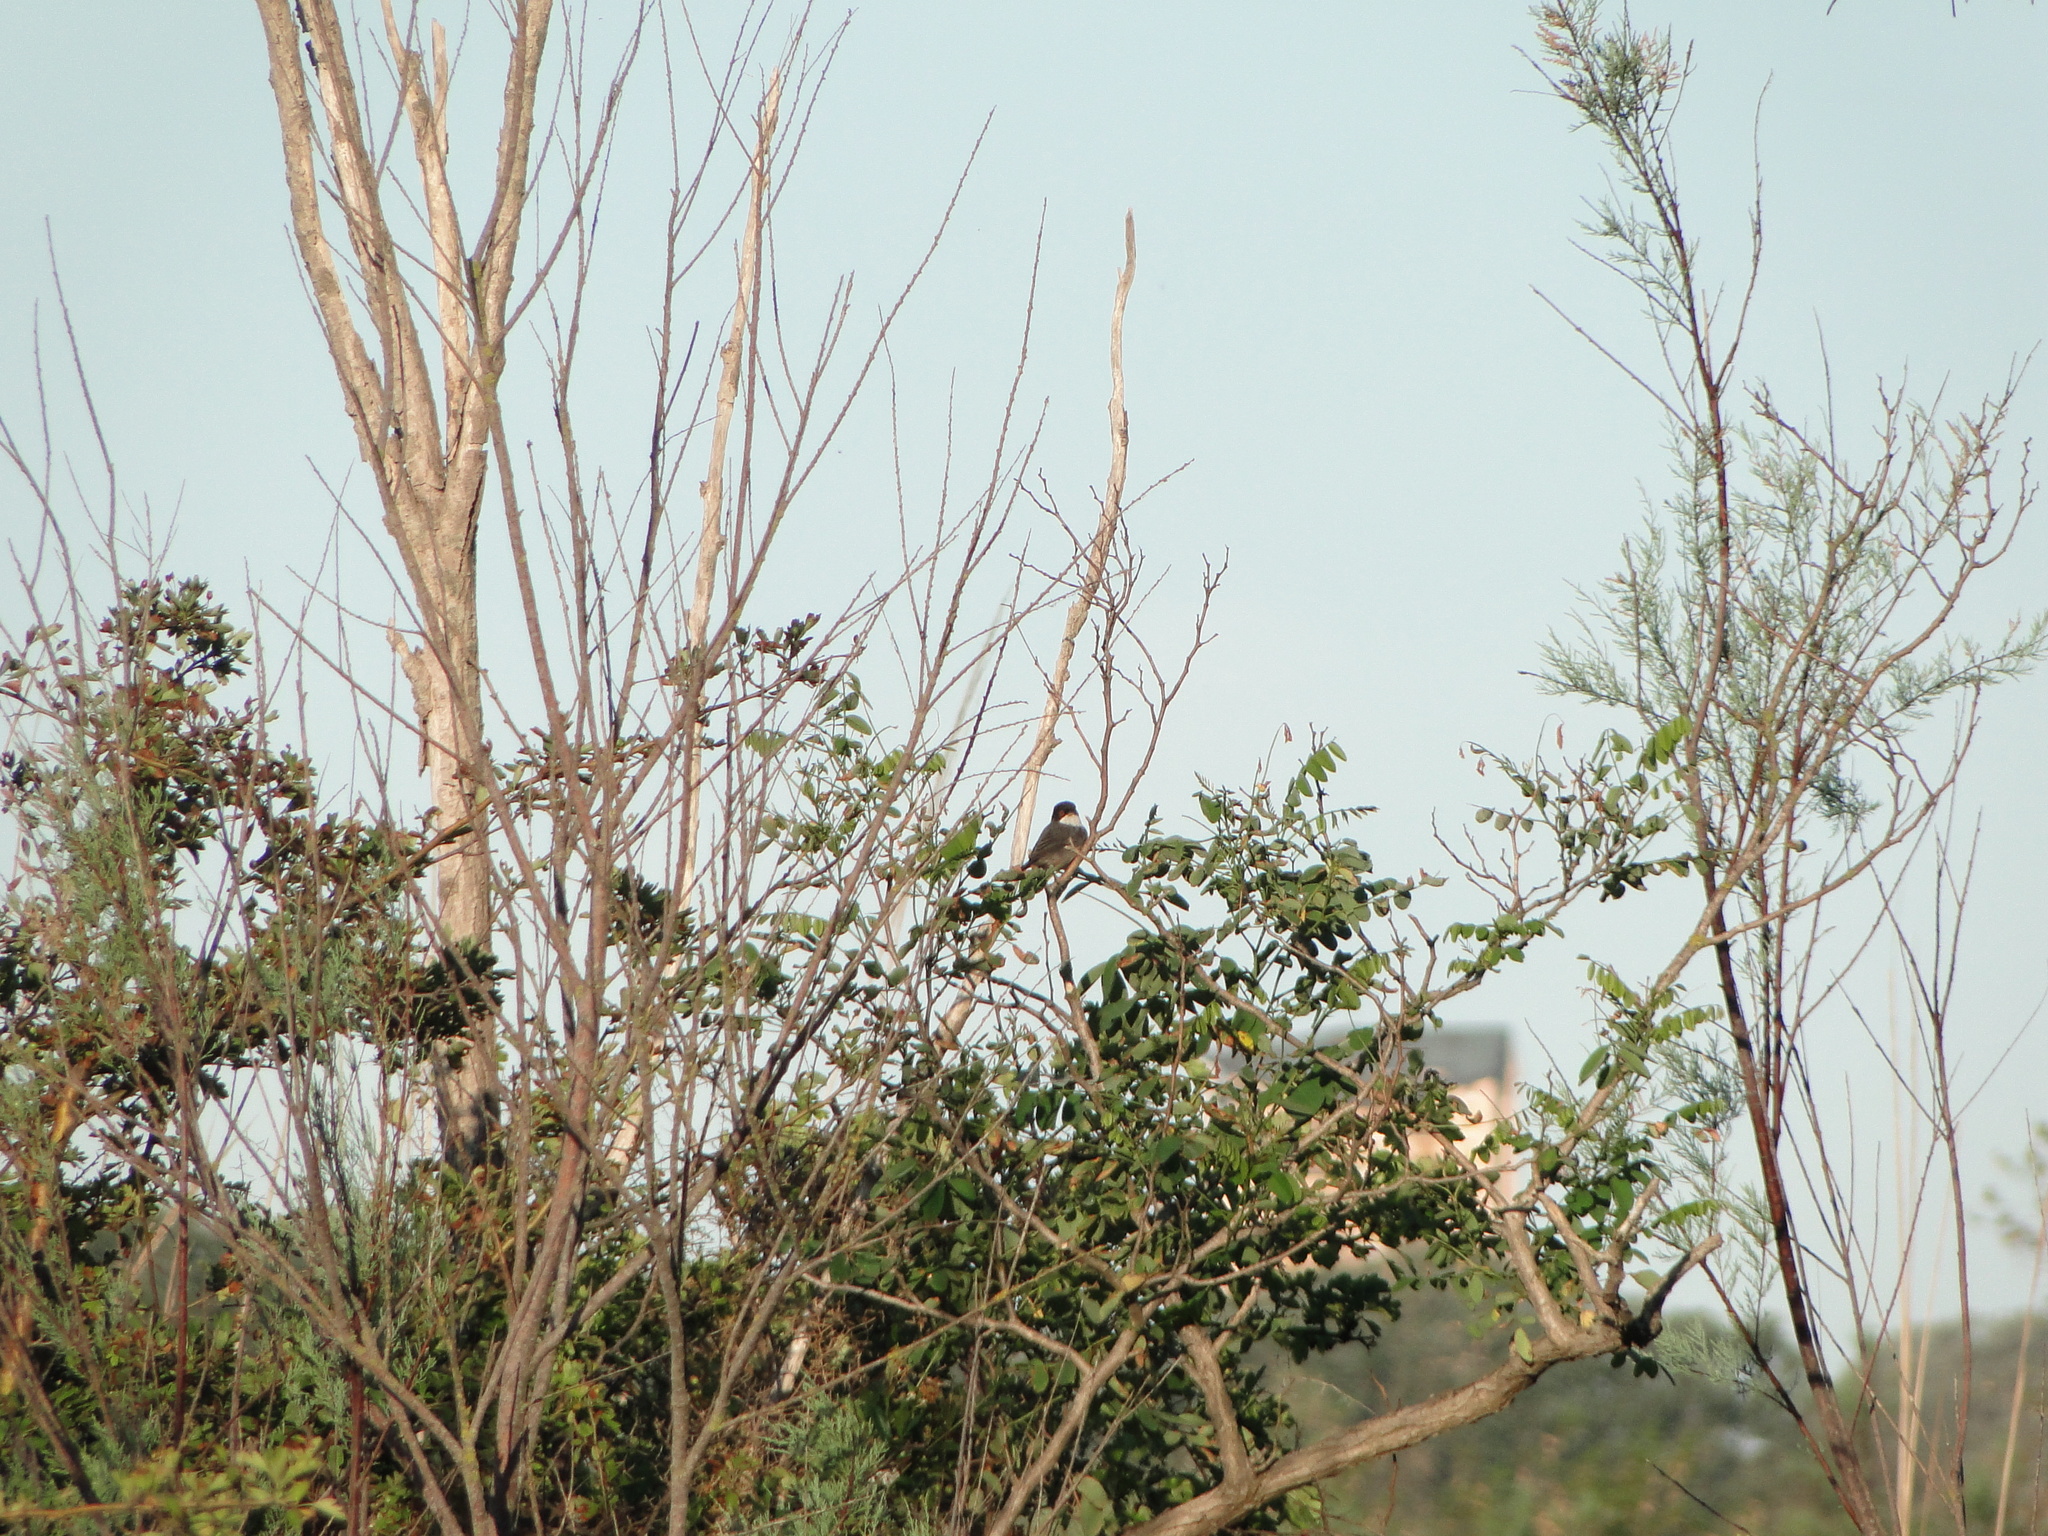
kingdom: Animalia
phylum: Chordata
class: Aves
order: Passeriformes
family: Sylviidae
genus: Curruca
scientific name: Curruca melanocephala
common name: Sardinian warbler
